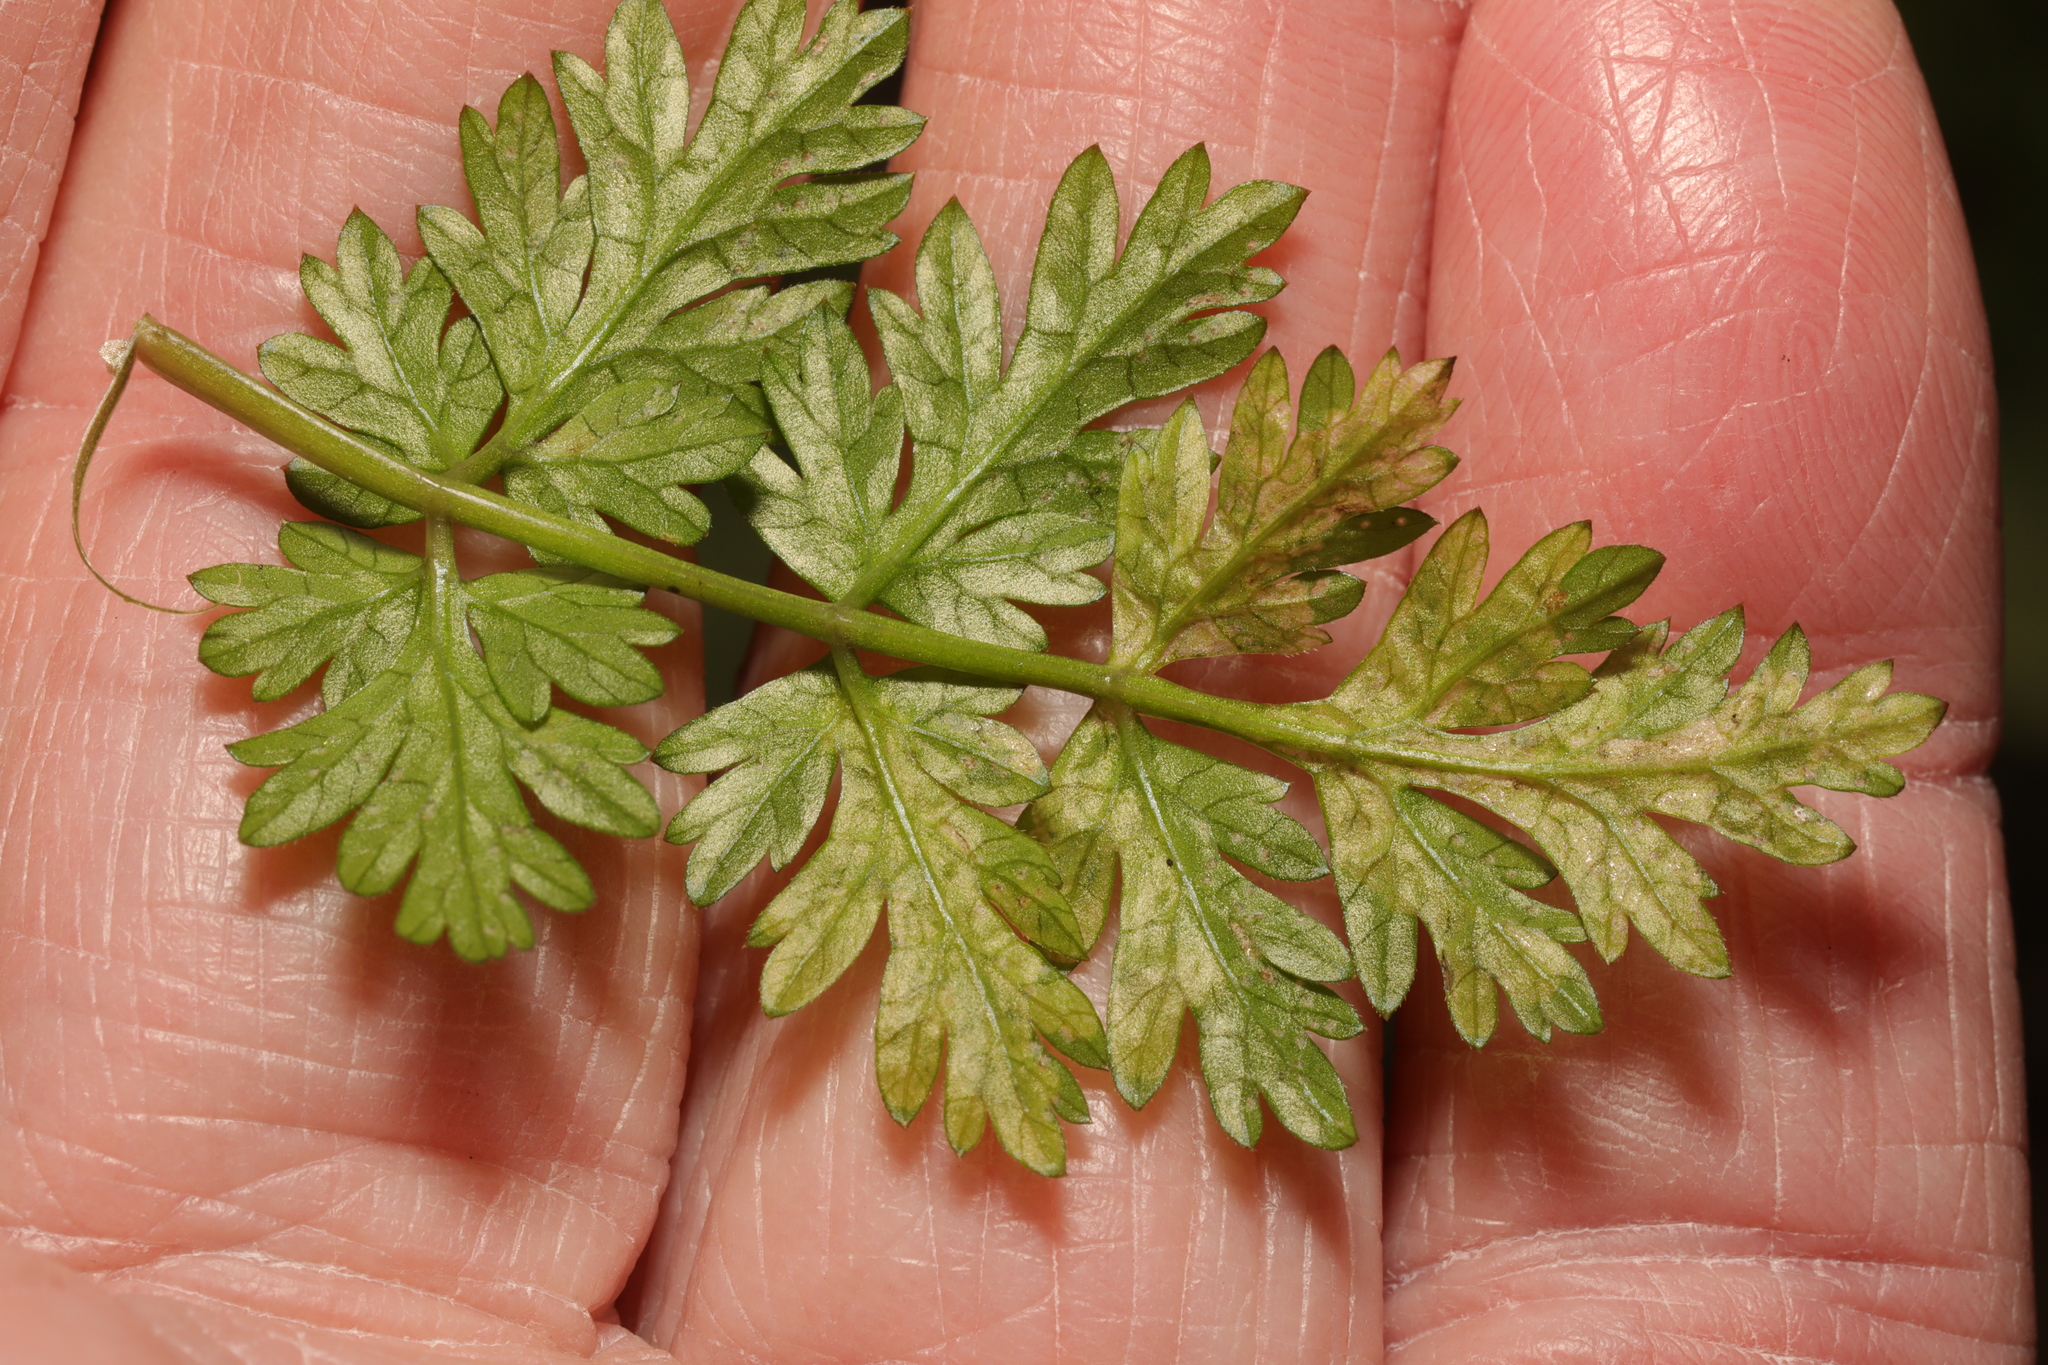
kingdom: Animalia
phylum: Arthropoda
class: Insecta
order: Diptera
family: Agromyzidae
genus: Phytomyza
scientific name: Phytomyza chaerophylli
